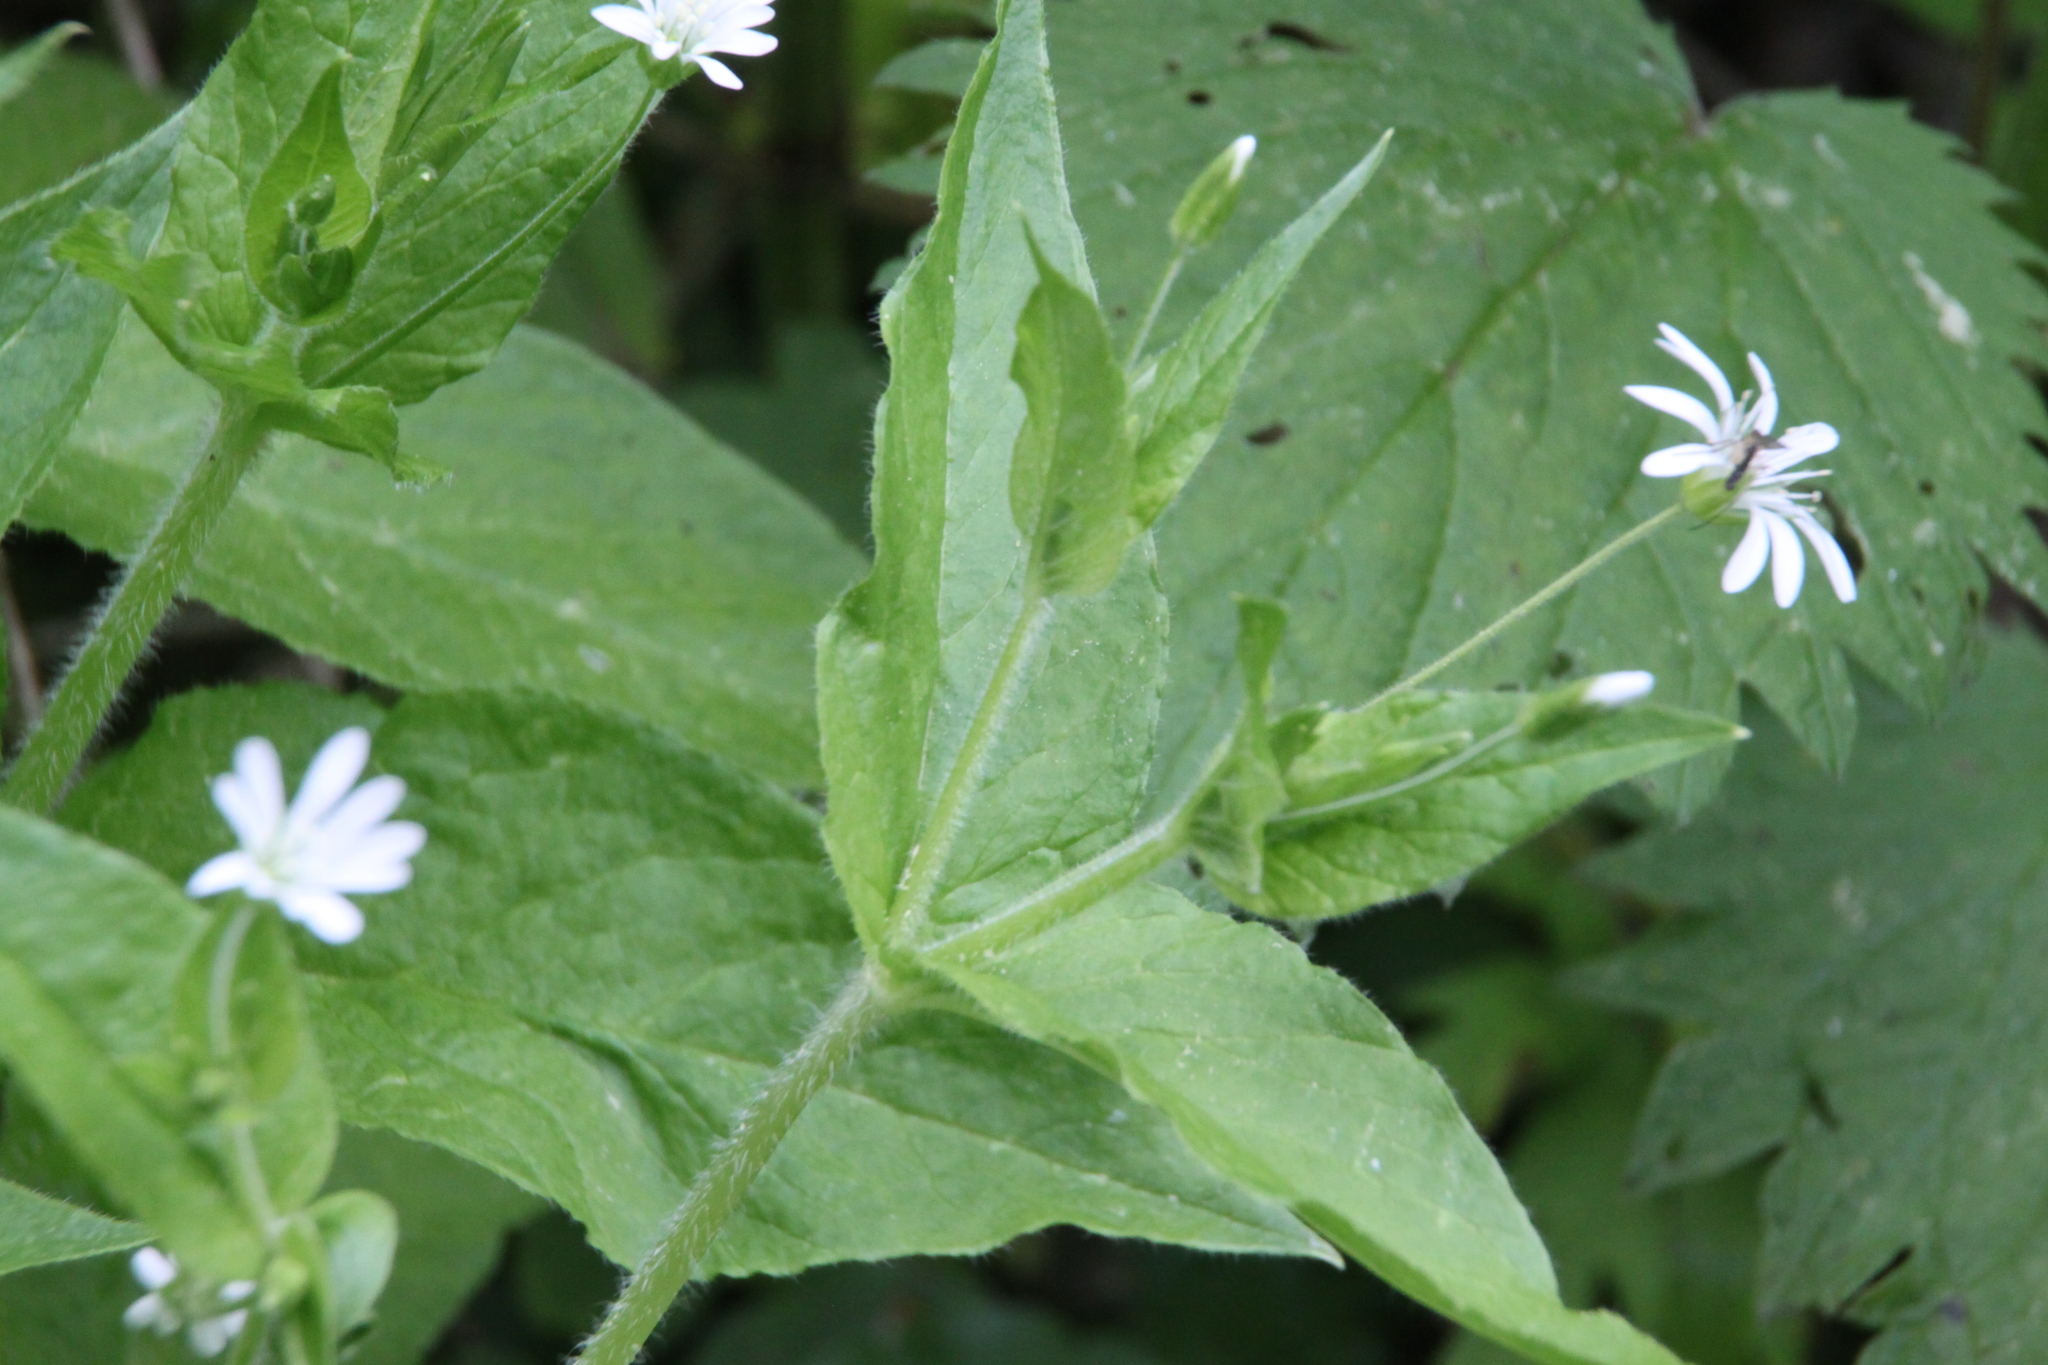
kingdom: Plantae
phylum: Tracheophyta
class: Magnoliopsida
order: Caryophyllales
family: Caryophyllaceae
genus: Stellaria
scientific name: Stellaria nemorum
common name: Wood stitchwort
